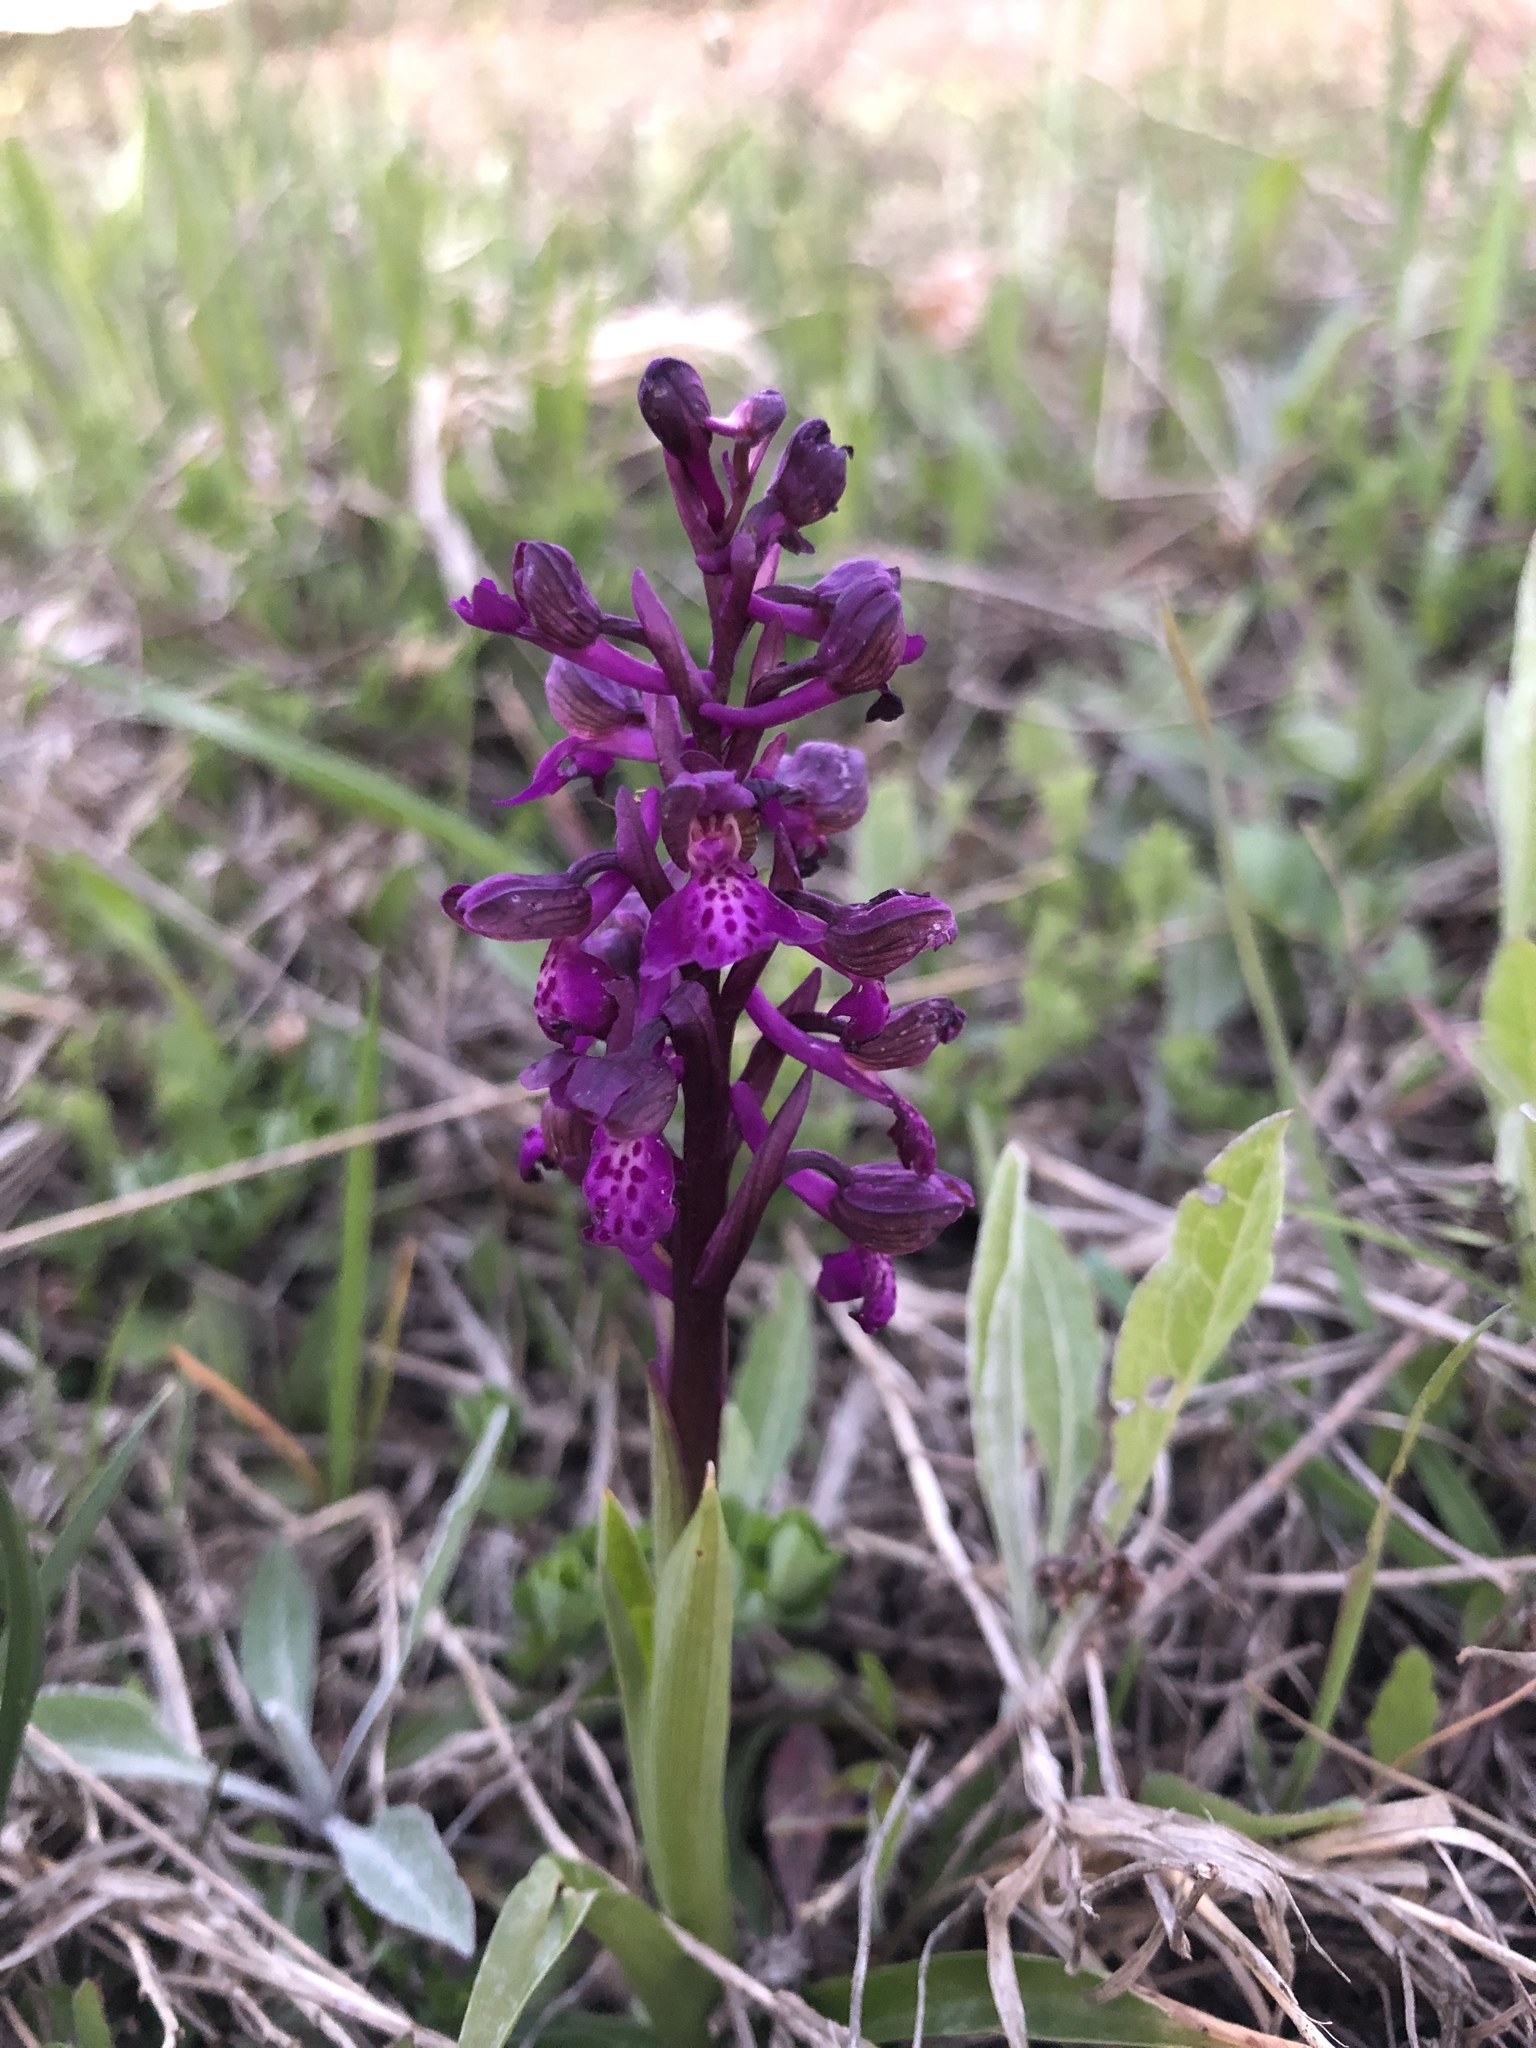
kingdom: Plantae
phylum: Tracheophyta
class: Liliopsida
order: Asparagales
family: Orchidaceae
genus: Anacamptis
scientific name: Anacamptis morio
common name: Green-winged orchid
